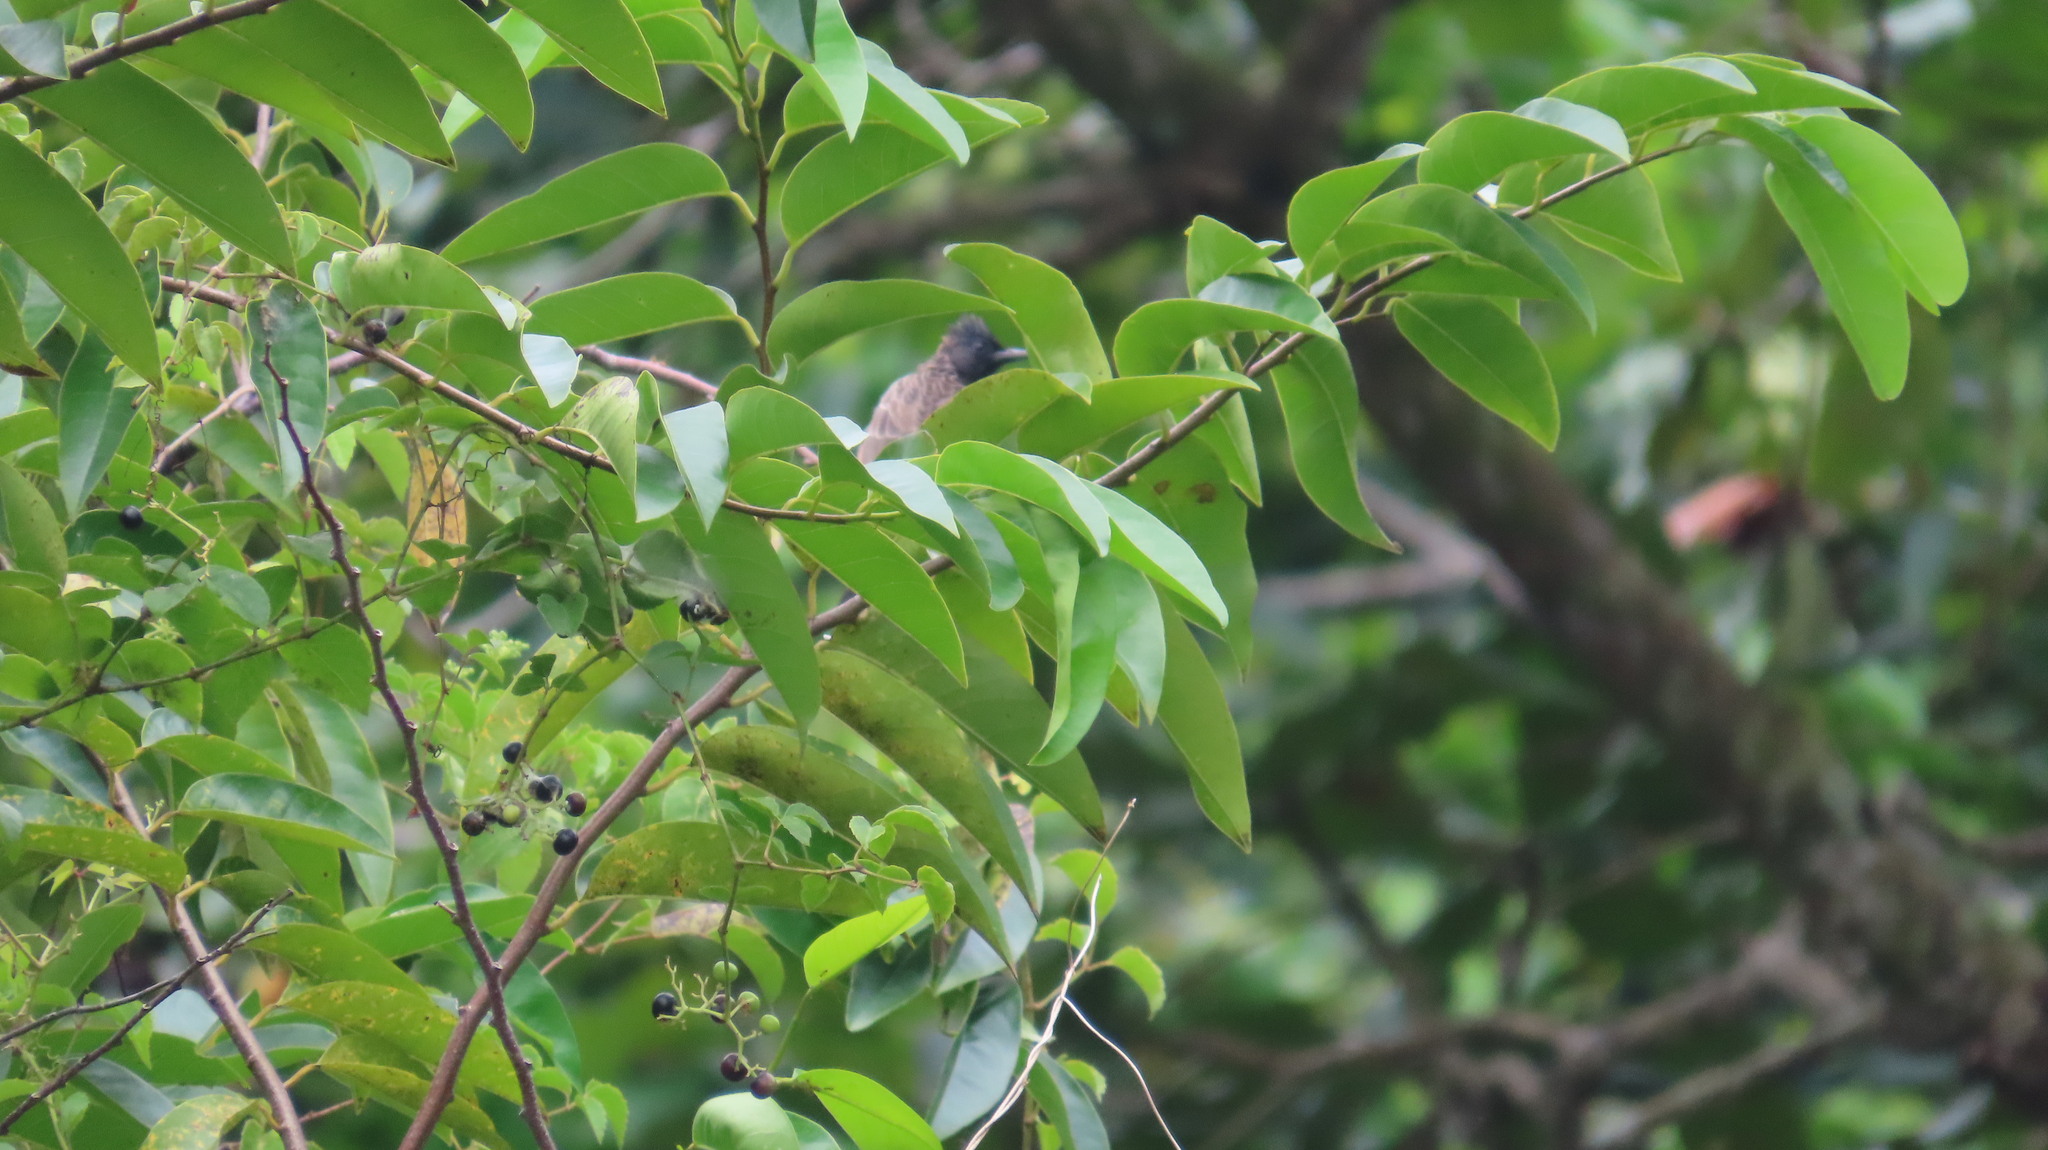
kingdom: Animalia
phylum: Chordata
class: Aves
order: Passeriformes
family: Pycnonotidae
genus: Pycnonotus
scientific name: Pycnonotus cafer
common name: Red-vented bulbul
